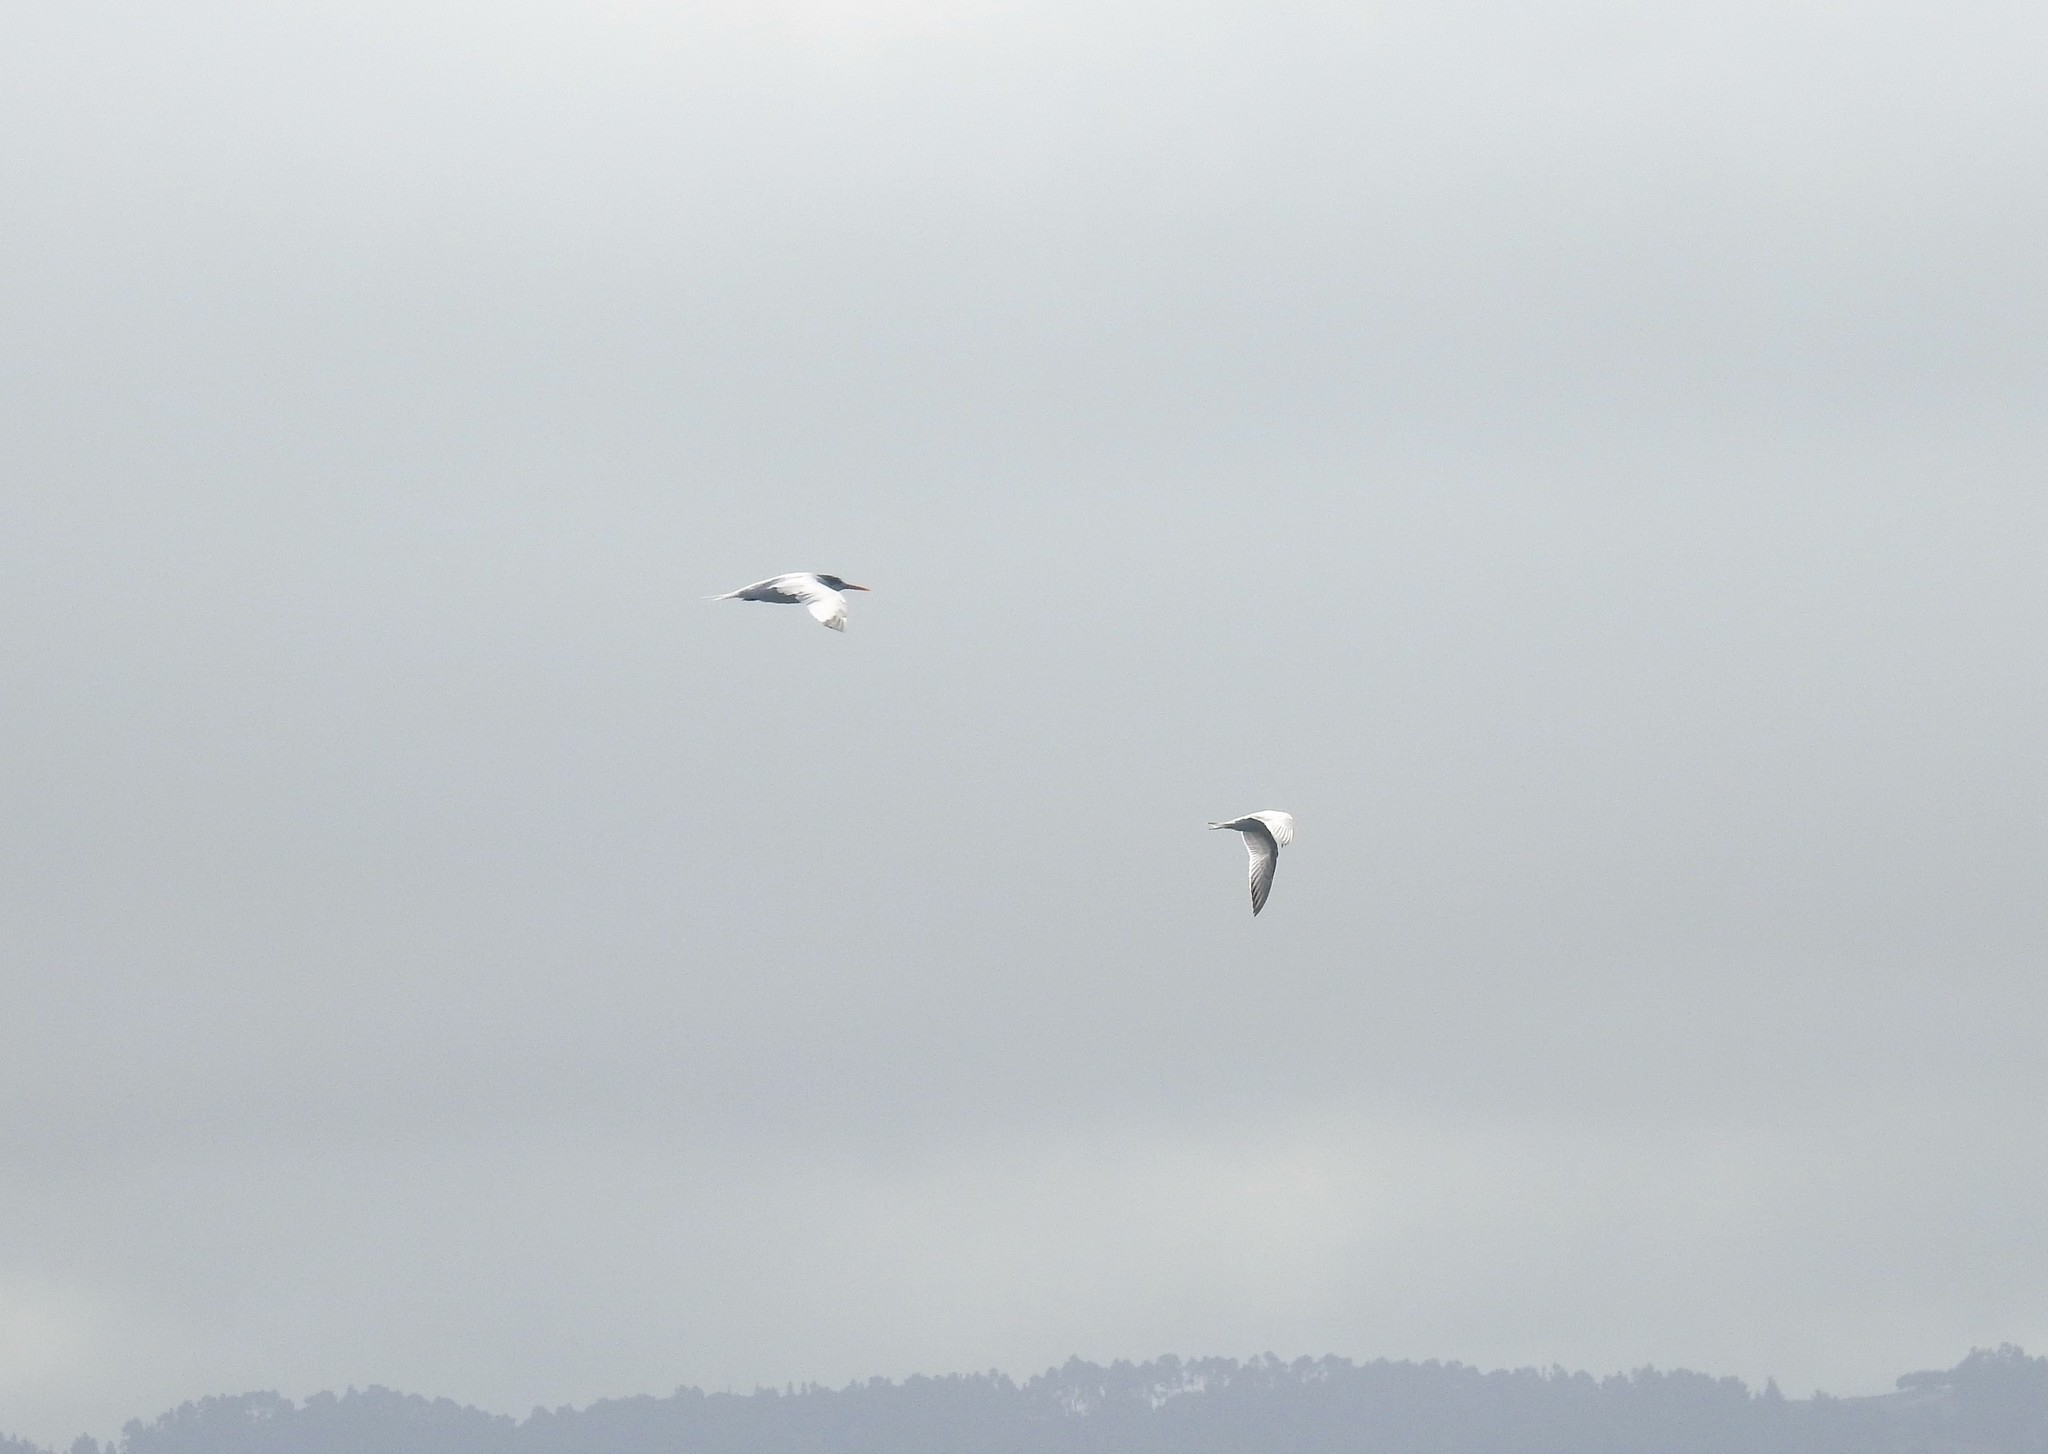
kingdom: Animalia
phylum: Chordata
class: Aves
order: Charadriiformes
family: Laridae
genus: Thalasseus
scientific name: Thalasseus elegans
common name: Elegant tern
